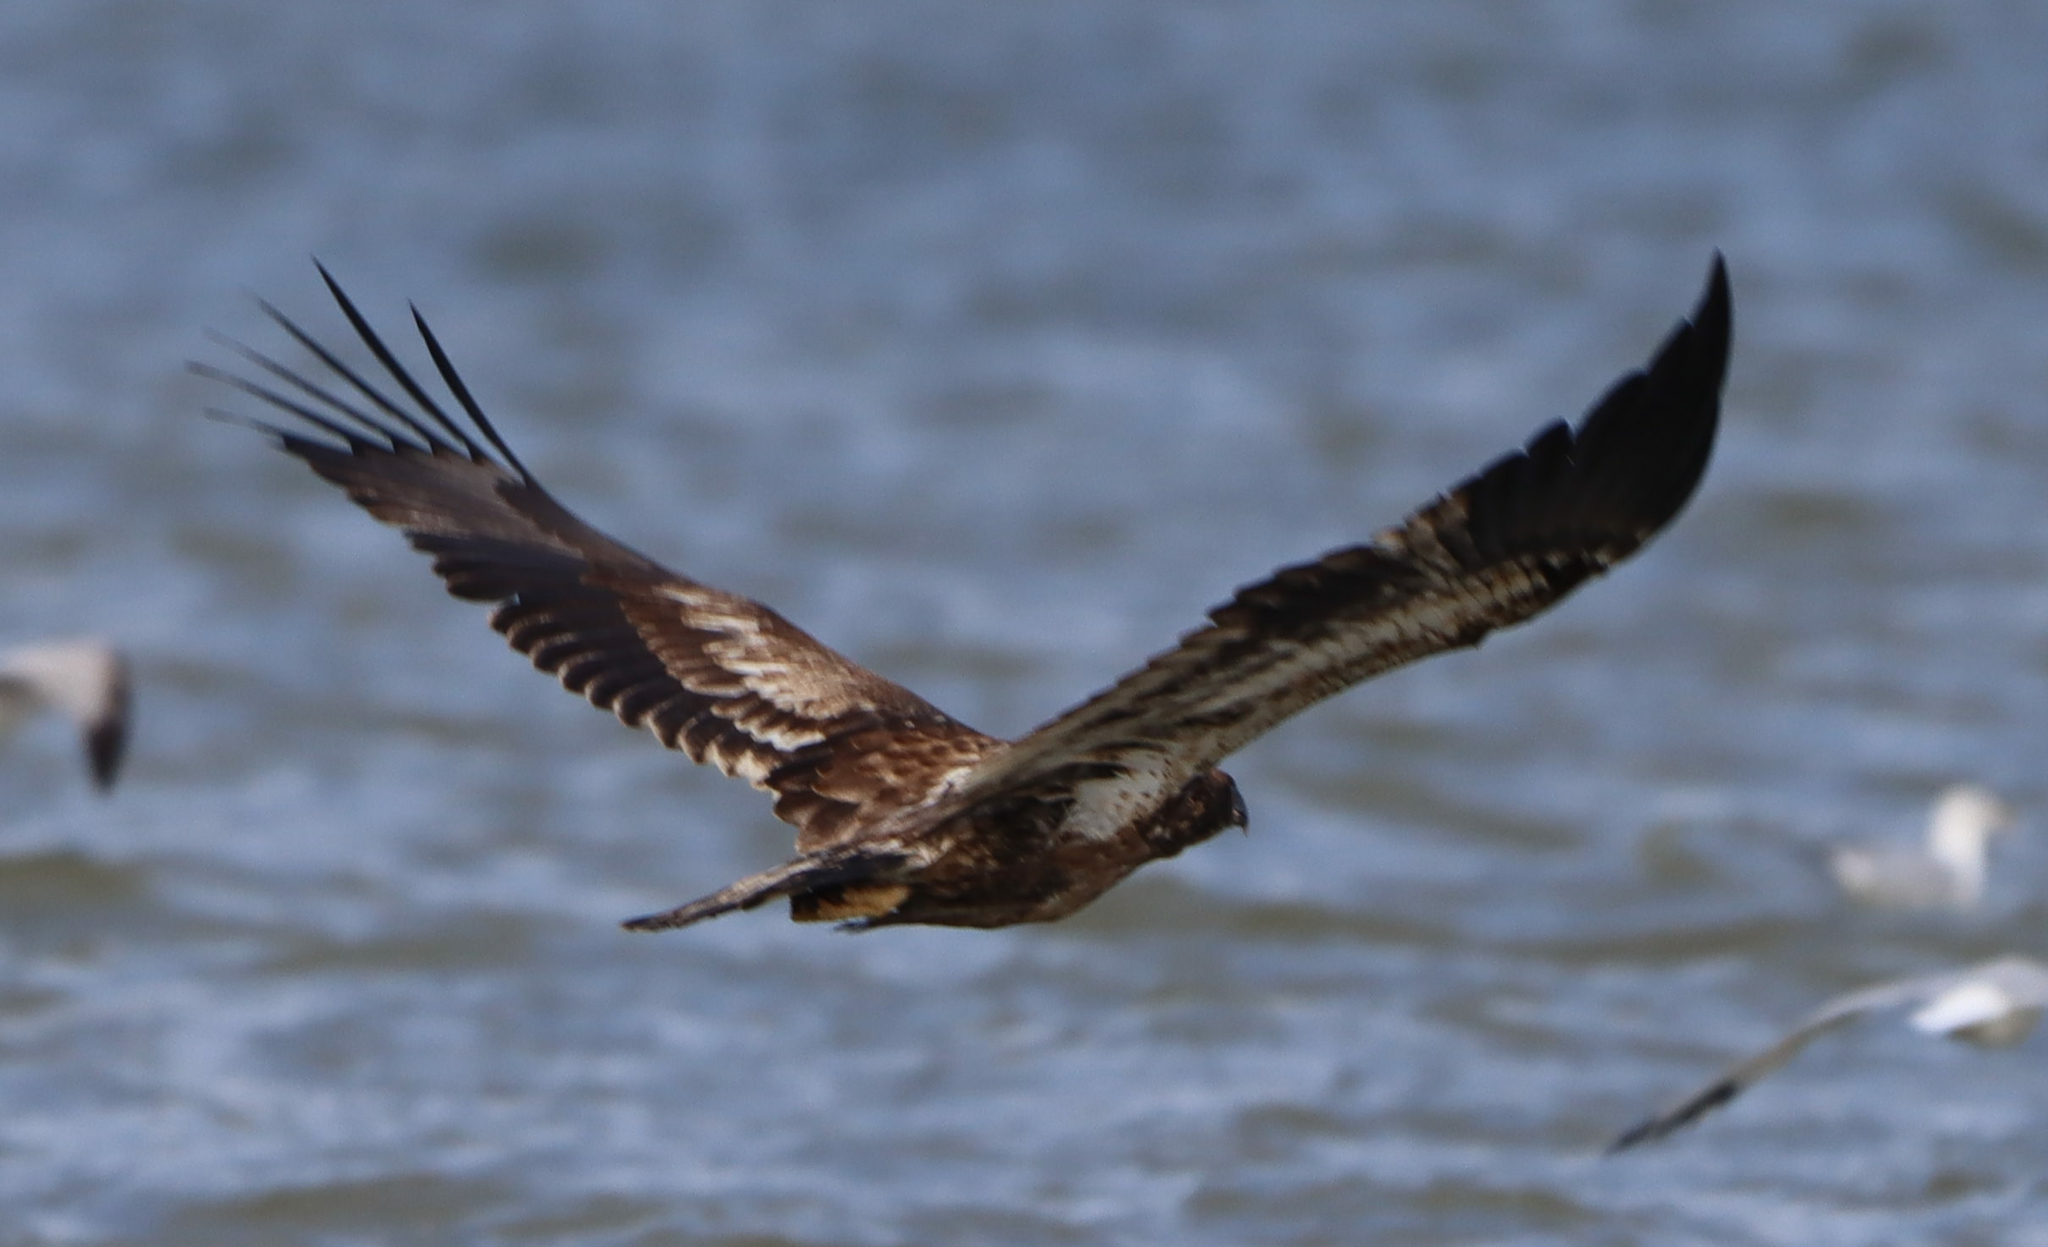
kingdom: Animalia
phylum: Chordata
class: Aves
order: Accipitriformes
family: Accipitridae
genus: Haliaeetus
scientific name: Haliaeetus leucocephalus
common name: Bald eagle
